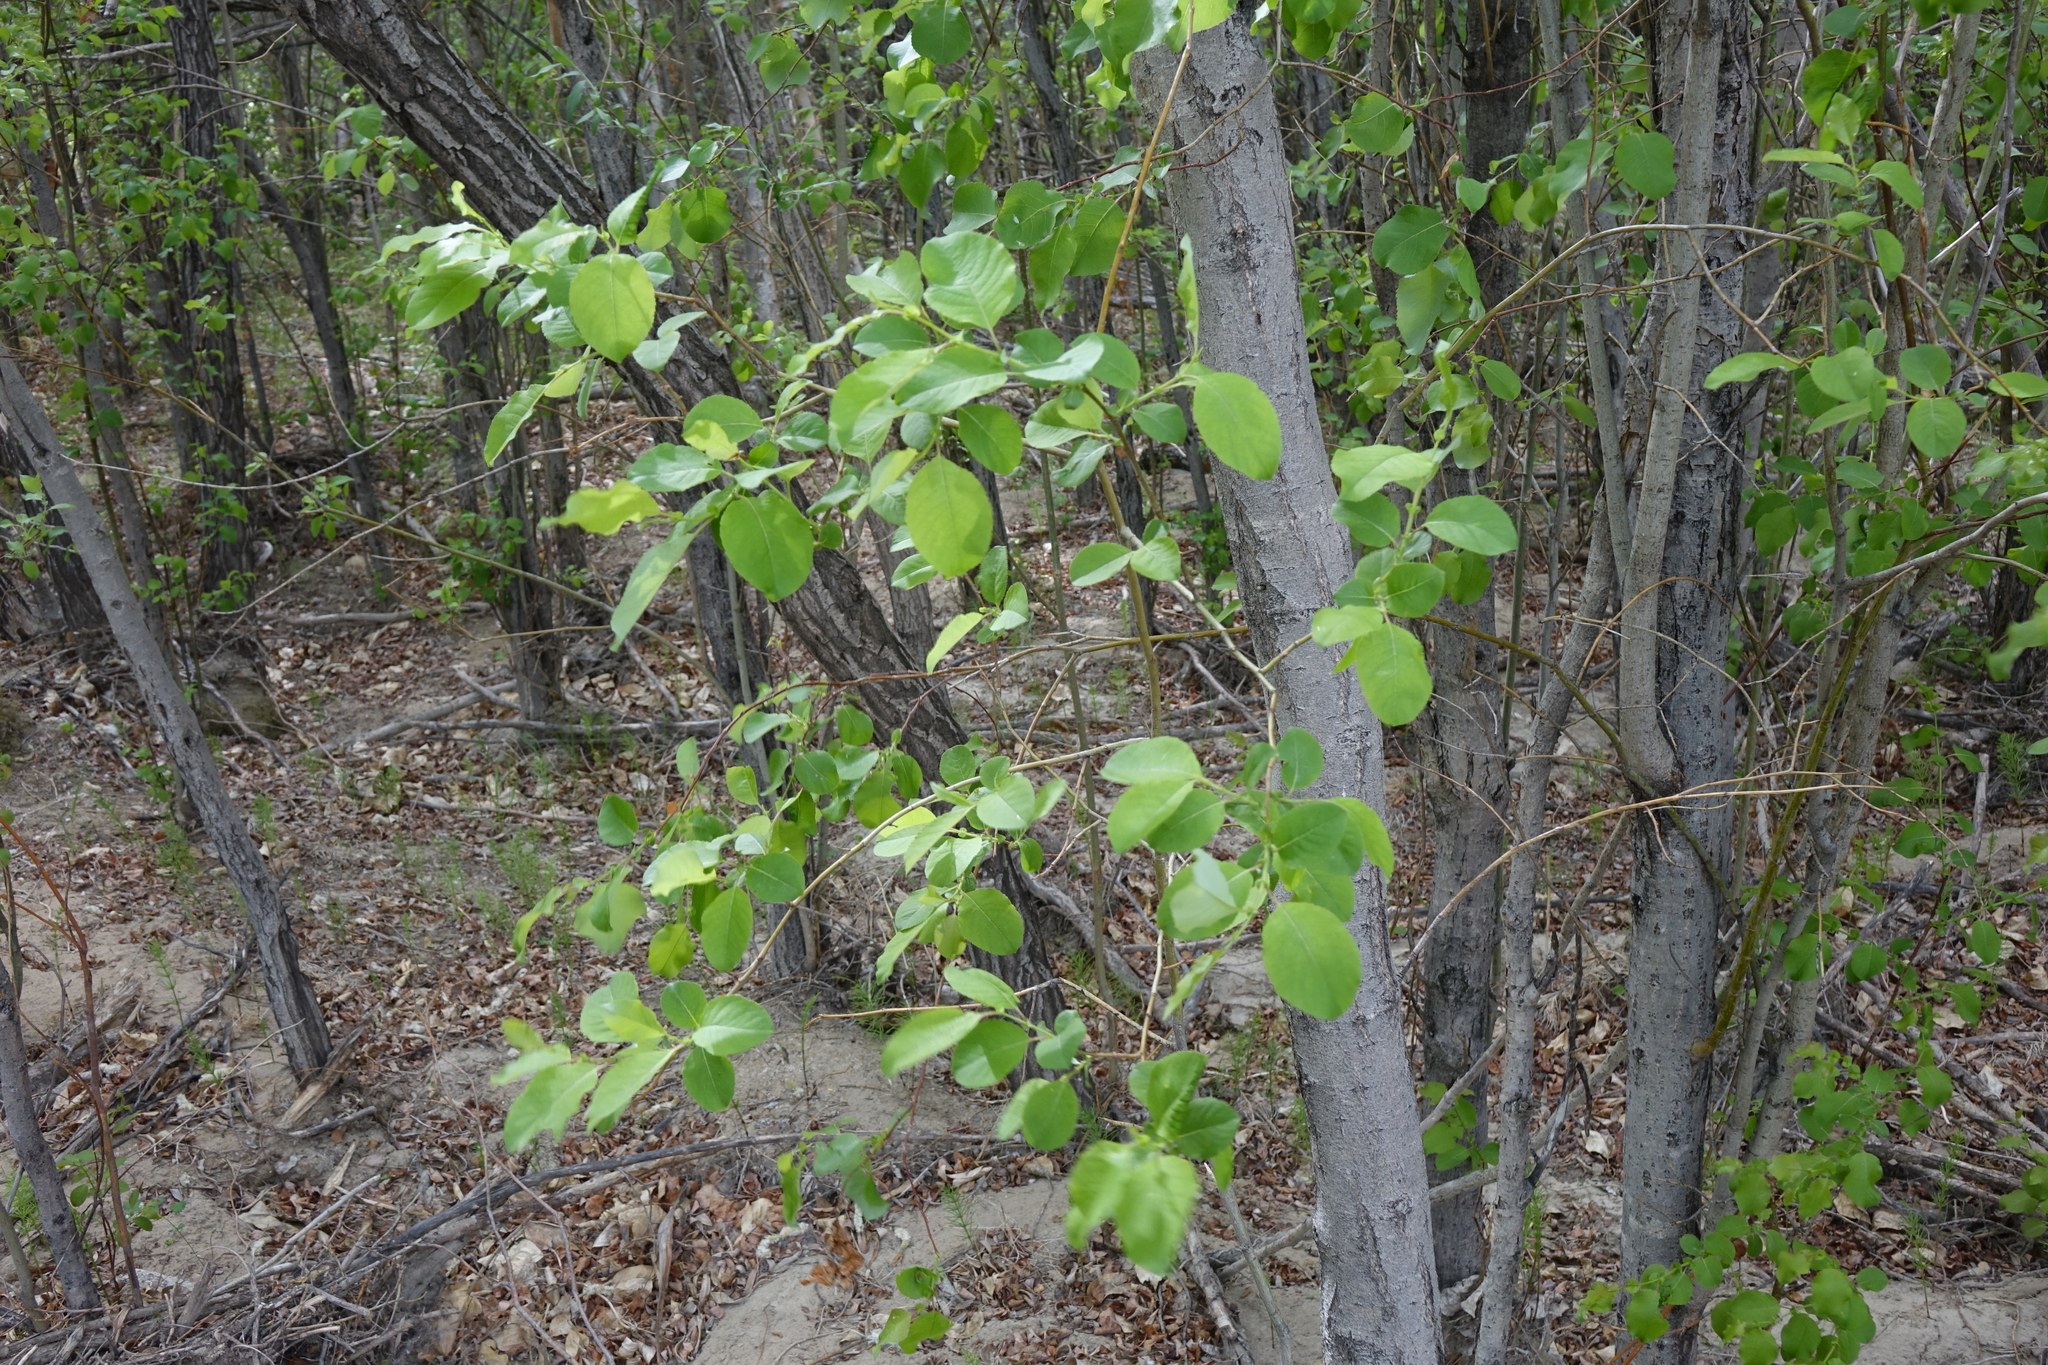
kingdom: Plantae
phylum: Tracheophyta
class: Magnoliopsida
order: Malpighiales
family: Salicaceae
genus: Salix
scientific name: Salix pyrolifolia
